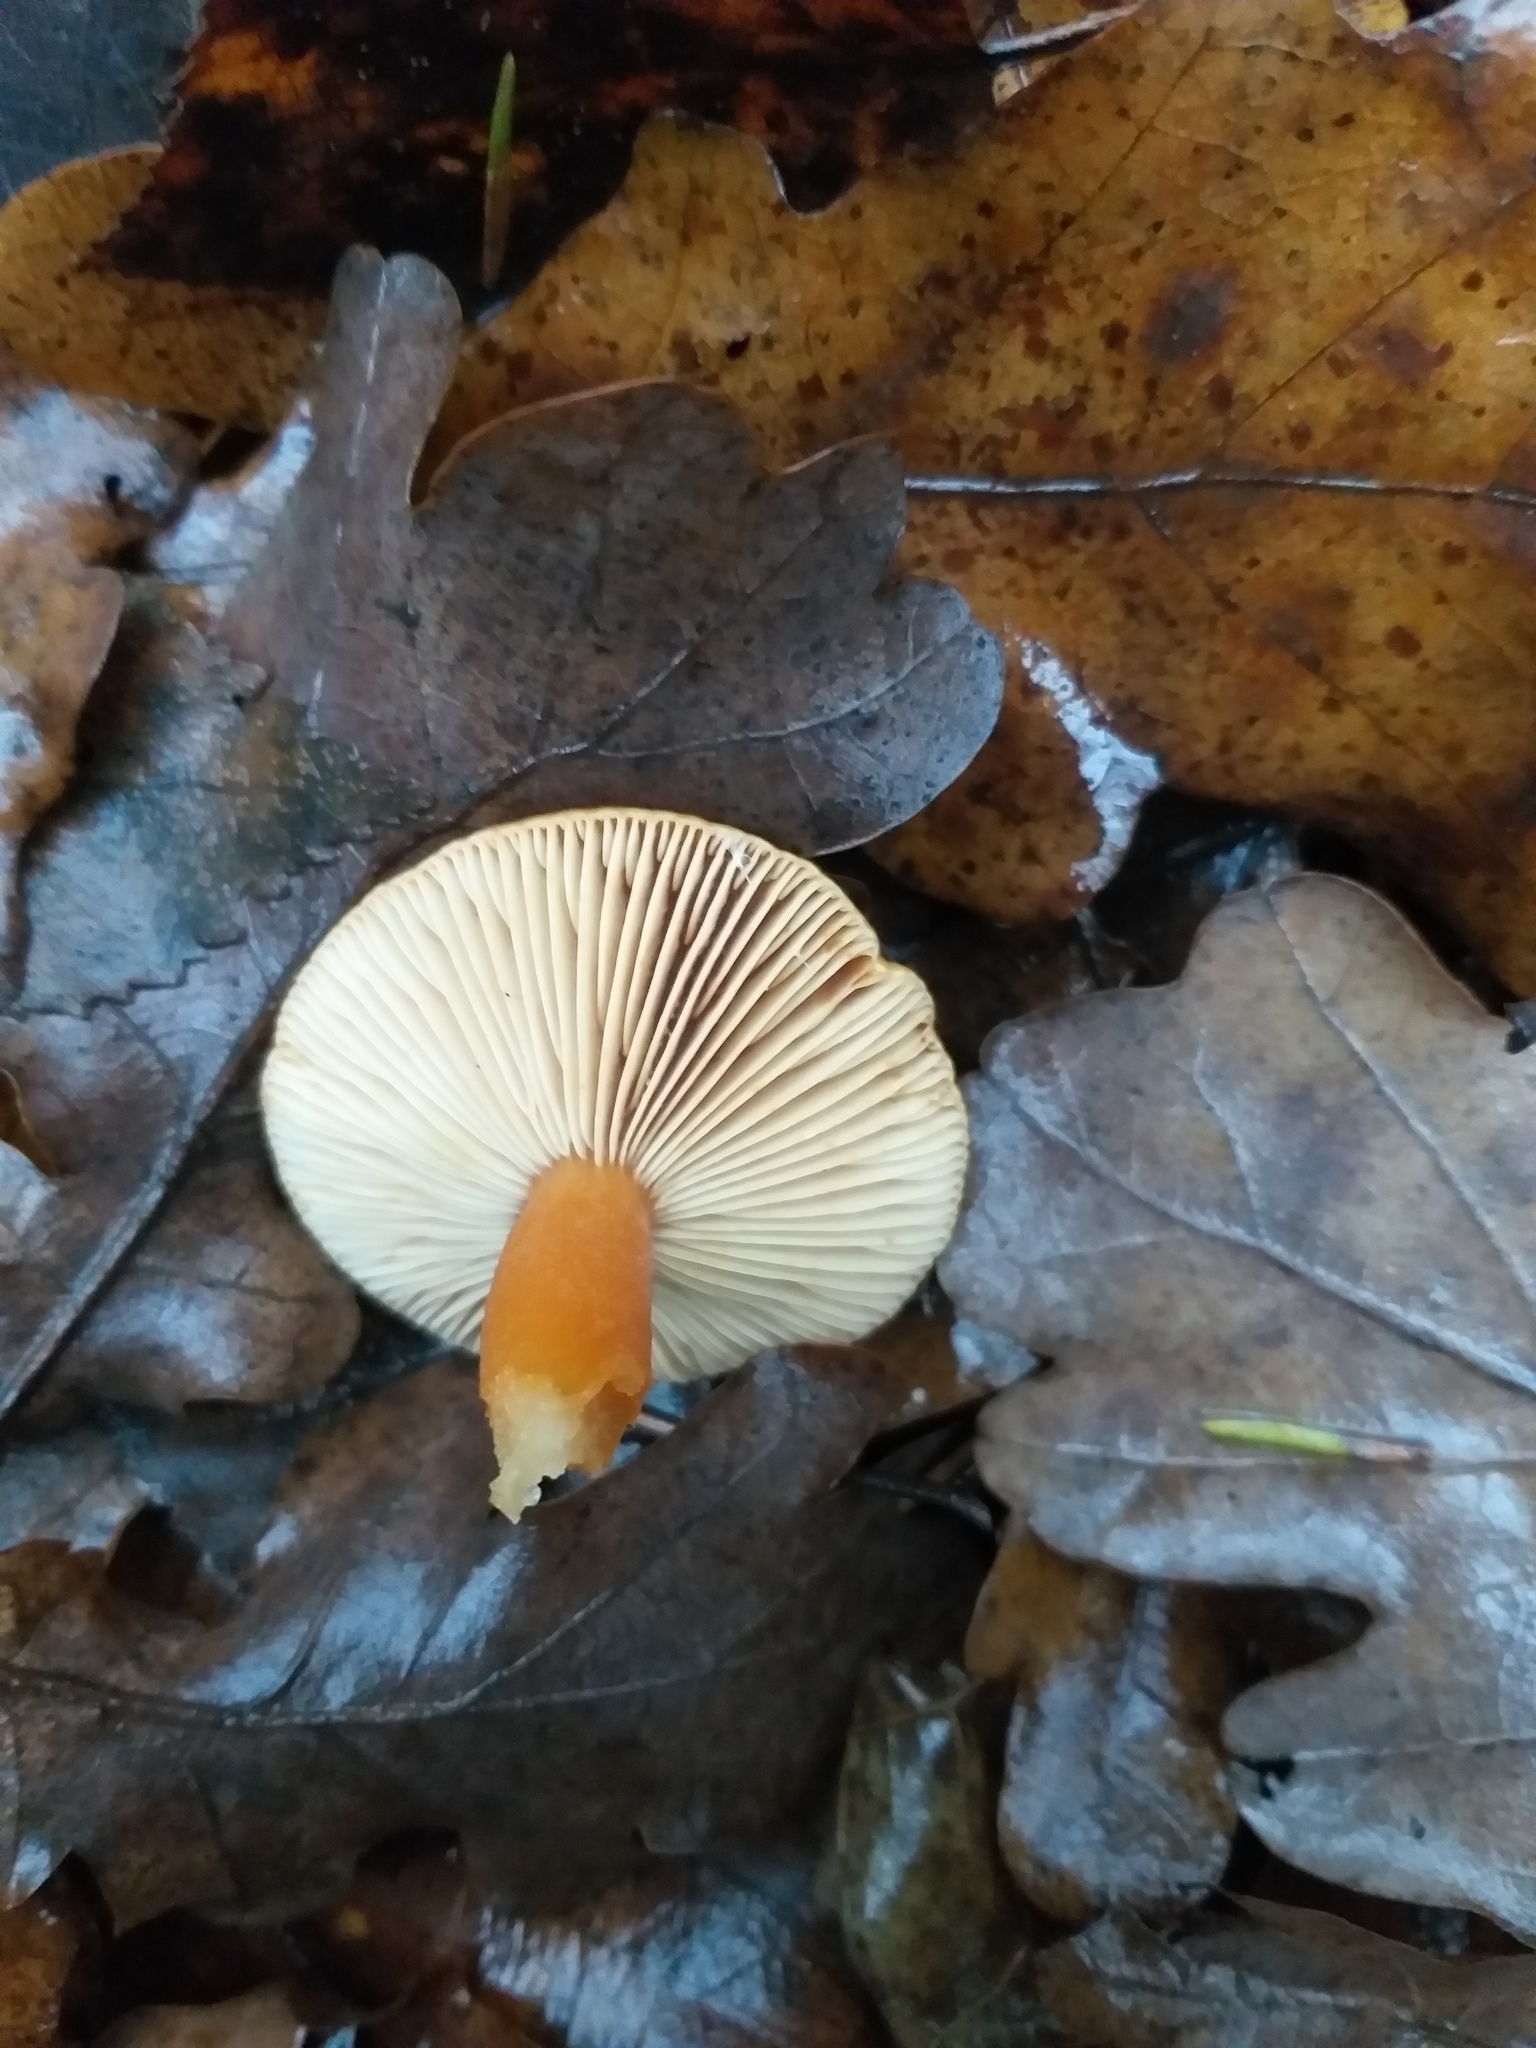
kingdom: Fungi
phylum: Basidiomycota
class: Agaricomycetes
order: Russulales
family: Russulaceae
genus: Lactarius
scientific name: Lactarius aurantiacus
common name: Orange milkcap
